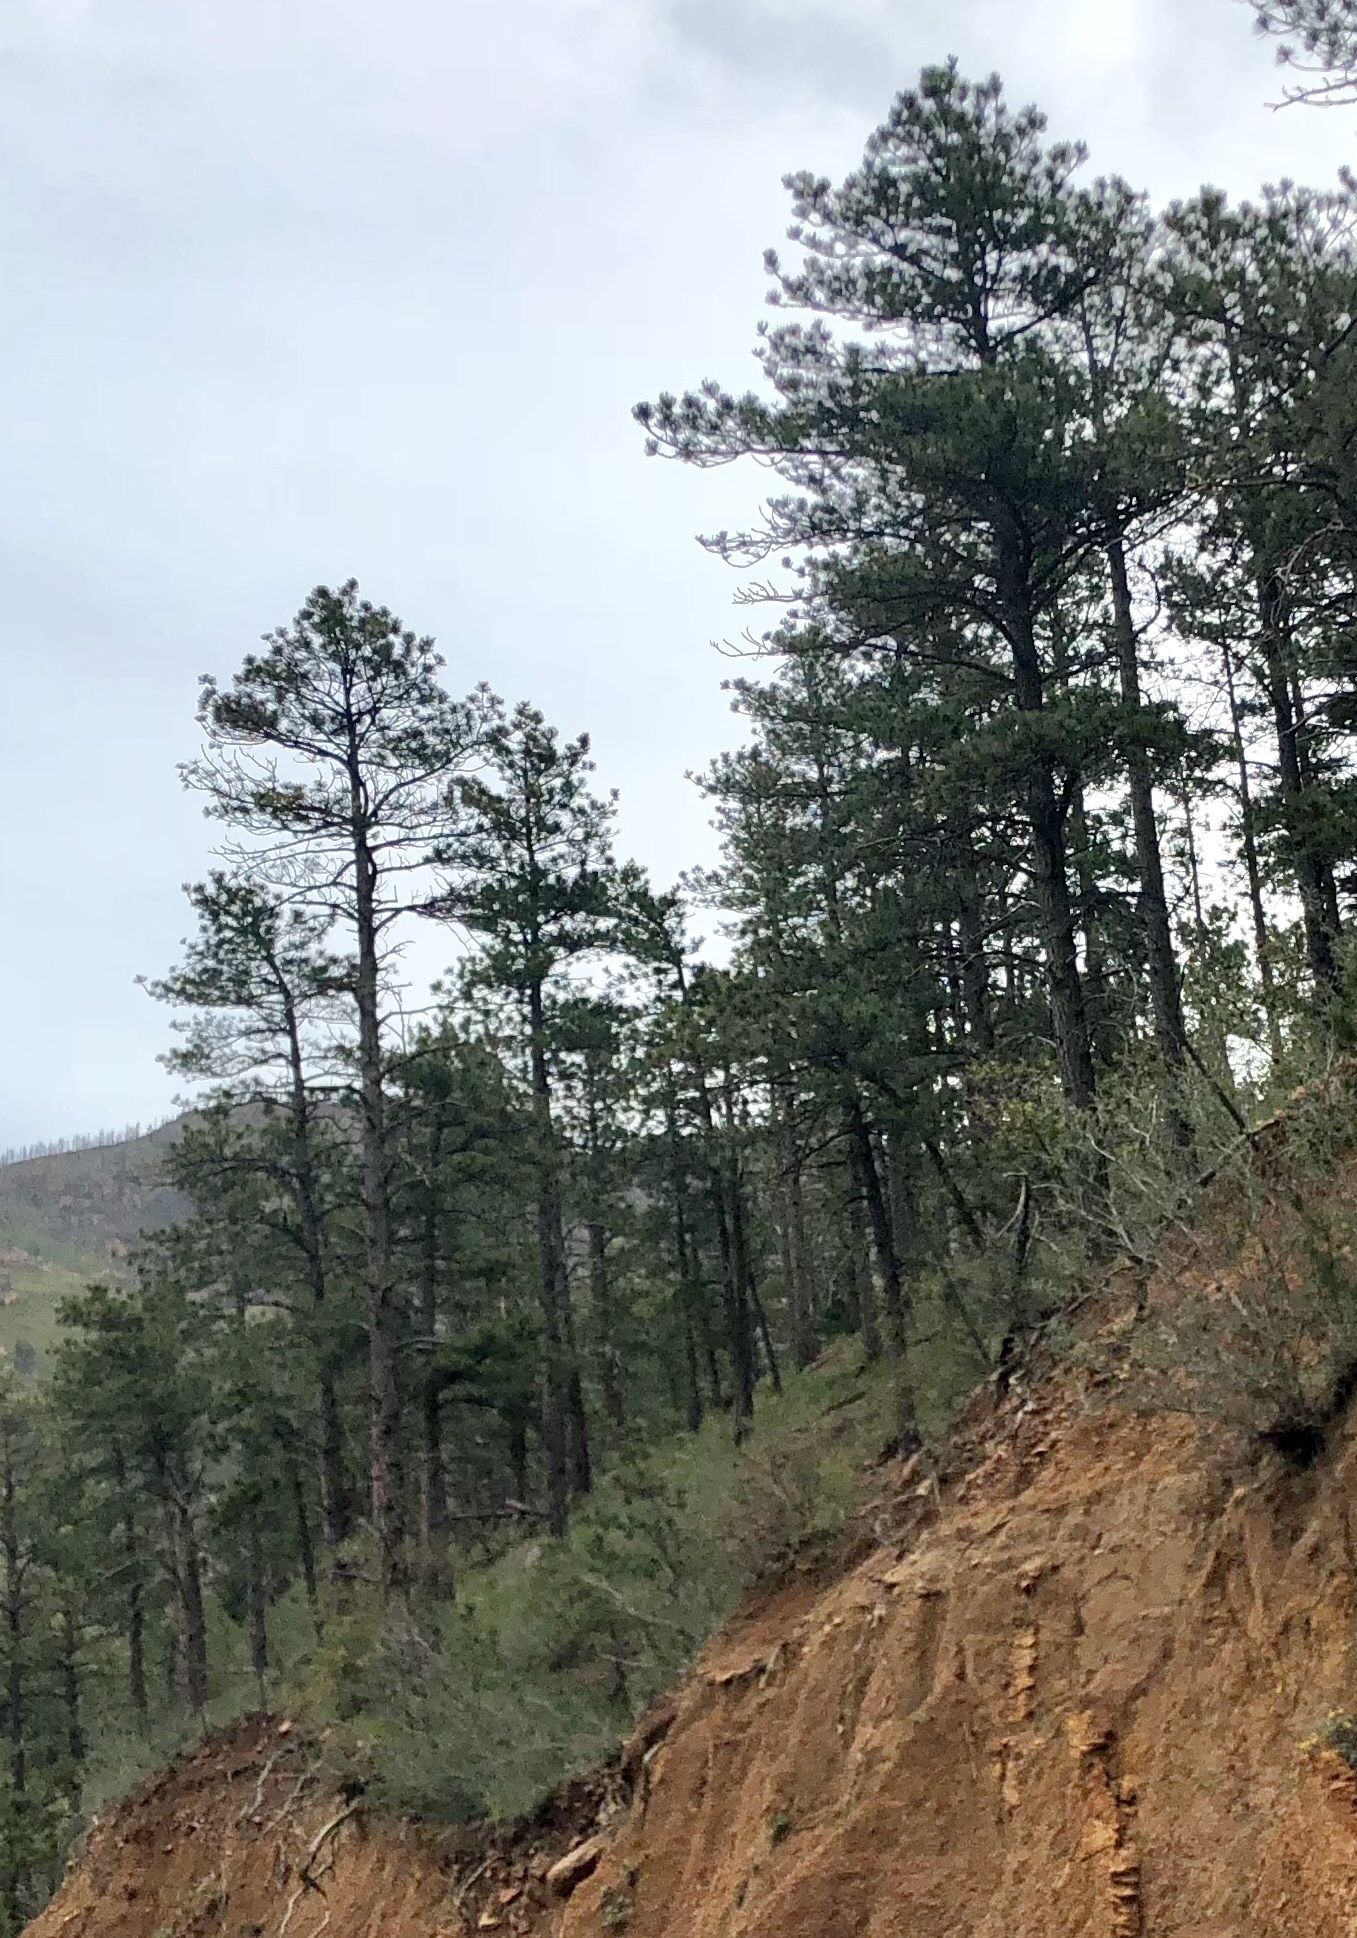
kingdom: Plantae
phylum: Tracheophyta
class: Pinopsida
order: Pinales
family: Pinaceae
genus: Pinus
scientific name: Pinus ponderosa
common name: Western yellow-pine
